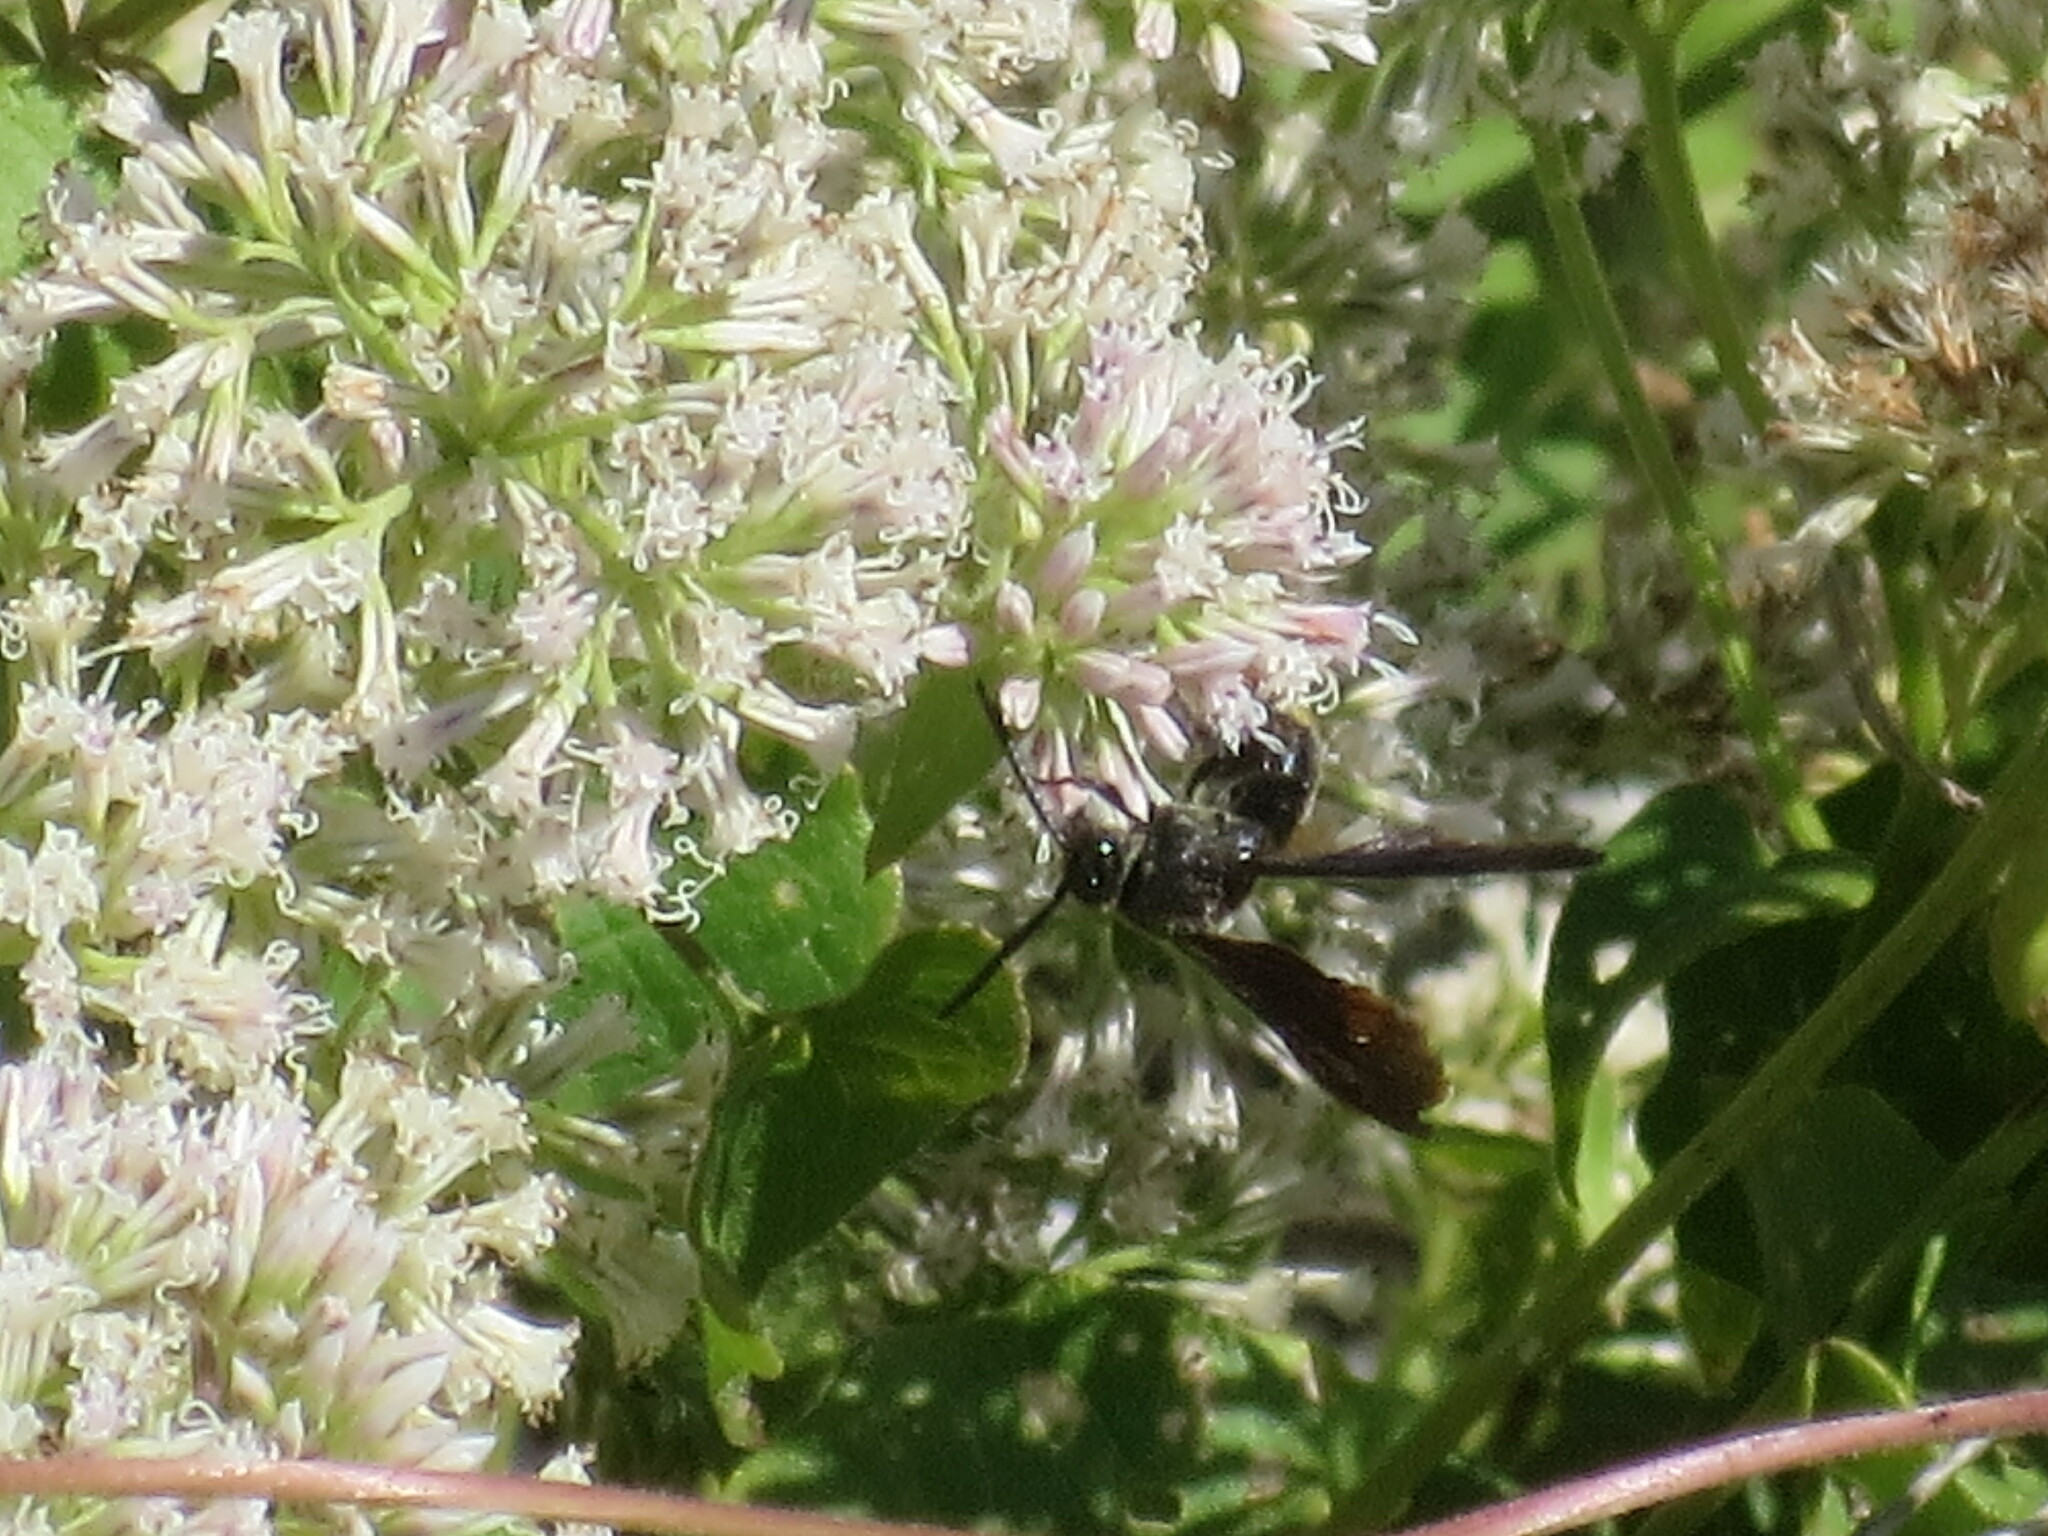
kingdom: Animalia
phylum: Arthropoda
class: Insecta
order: Hymenoptera
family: Scoliidae
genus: Scolia
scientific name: Scolia dubia
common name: Blue-winged scoliid wasp
